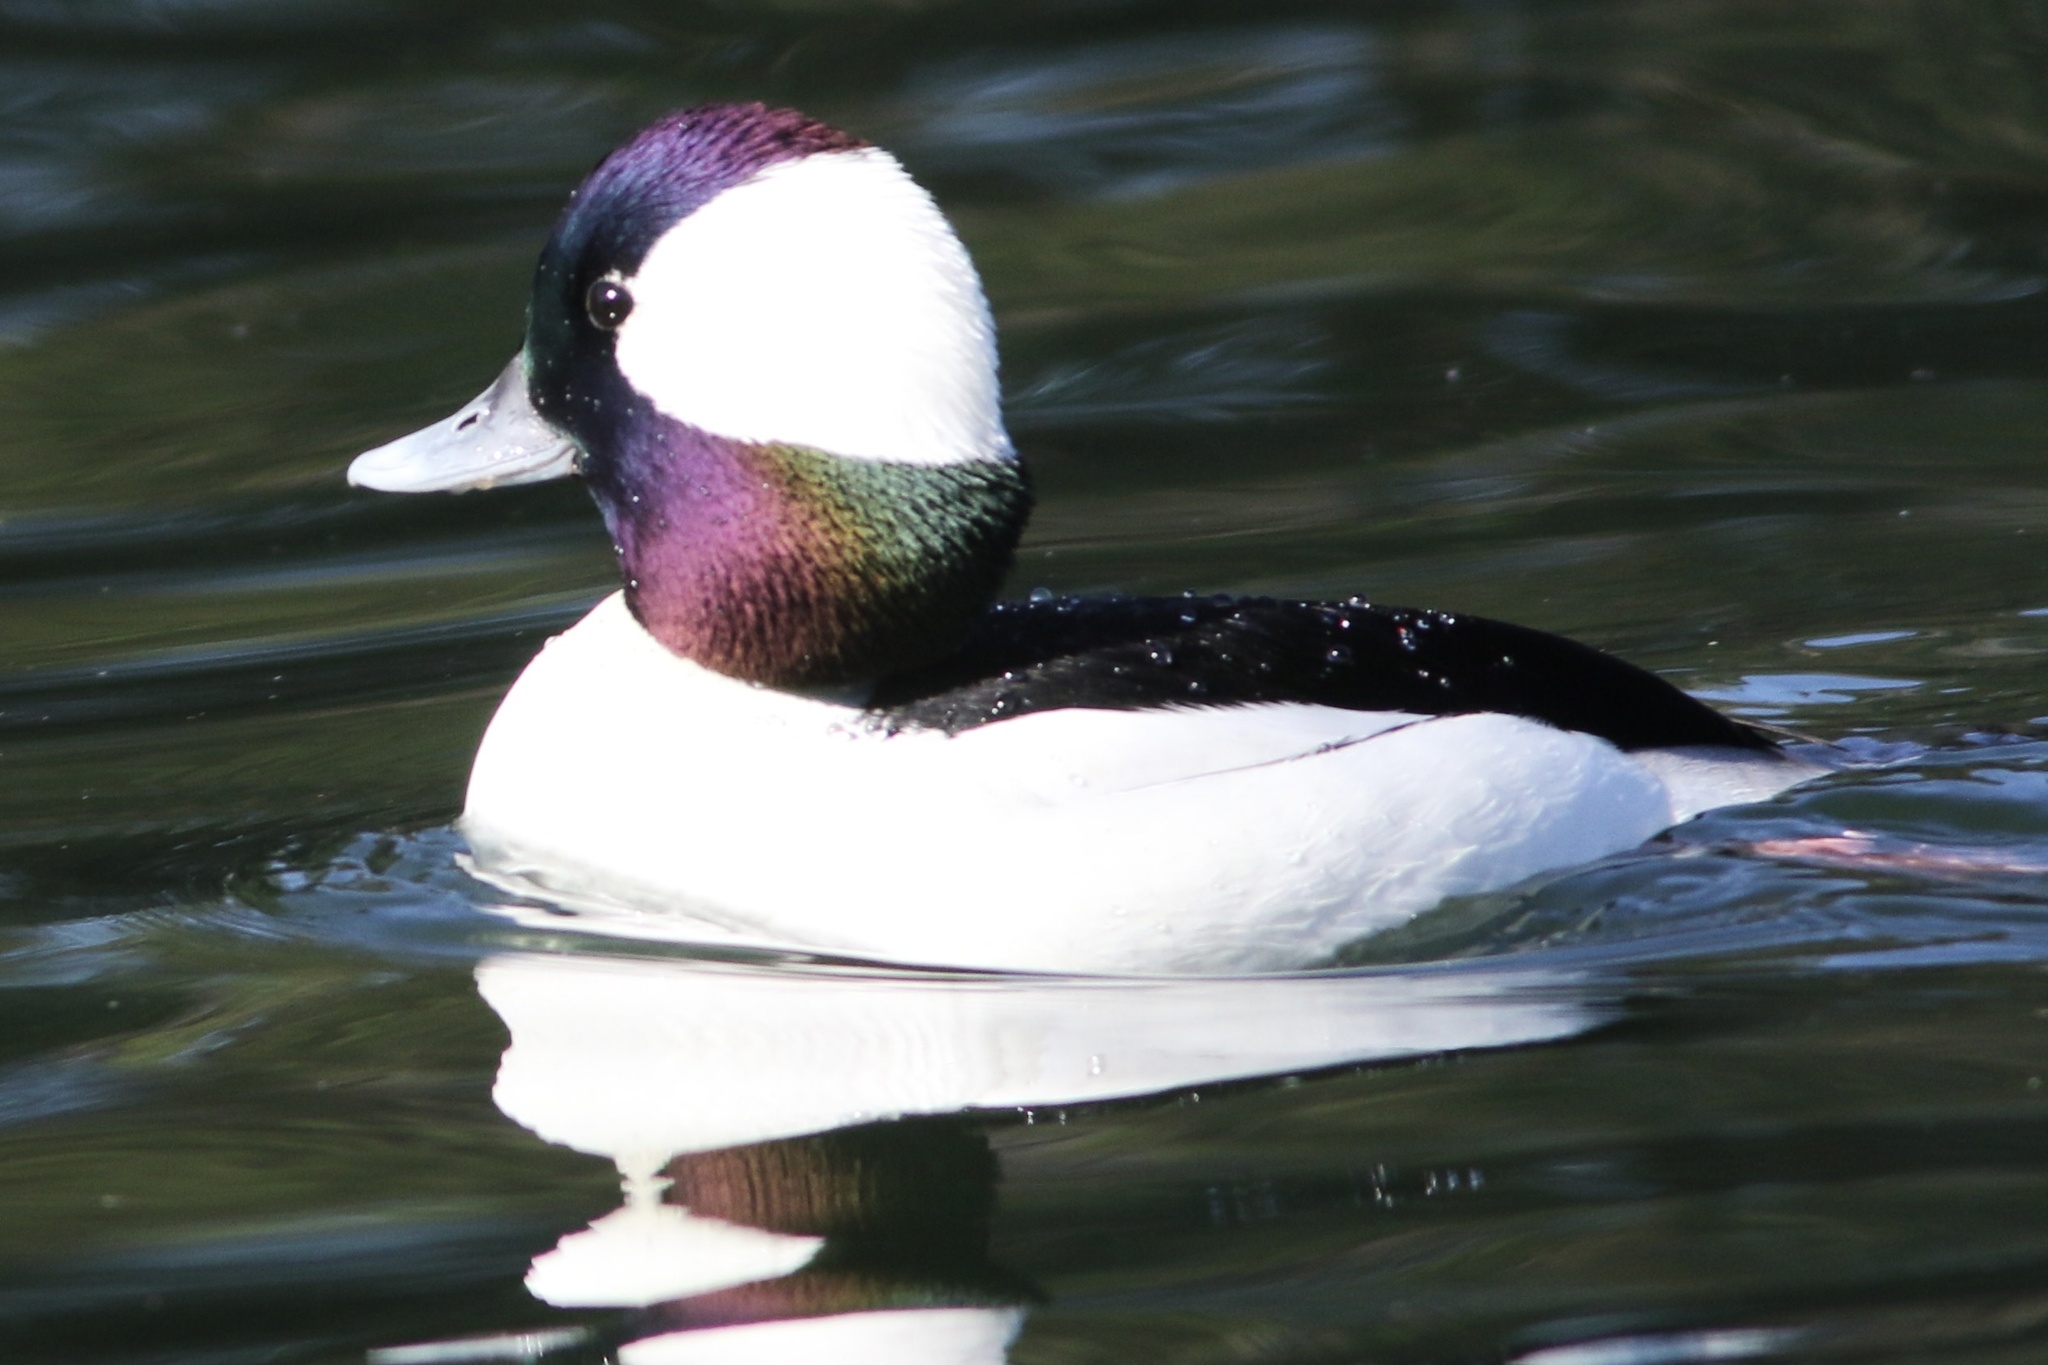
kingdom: Animalia
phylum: Chordata
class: Aves
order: Anseriformes
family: Anatidae
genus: Bucephala
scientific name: Bucephala albeola
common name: Bufflehead
